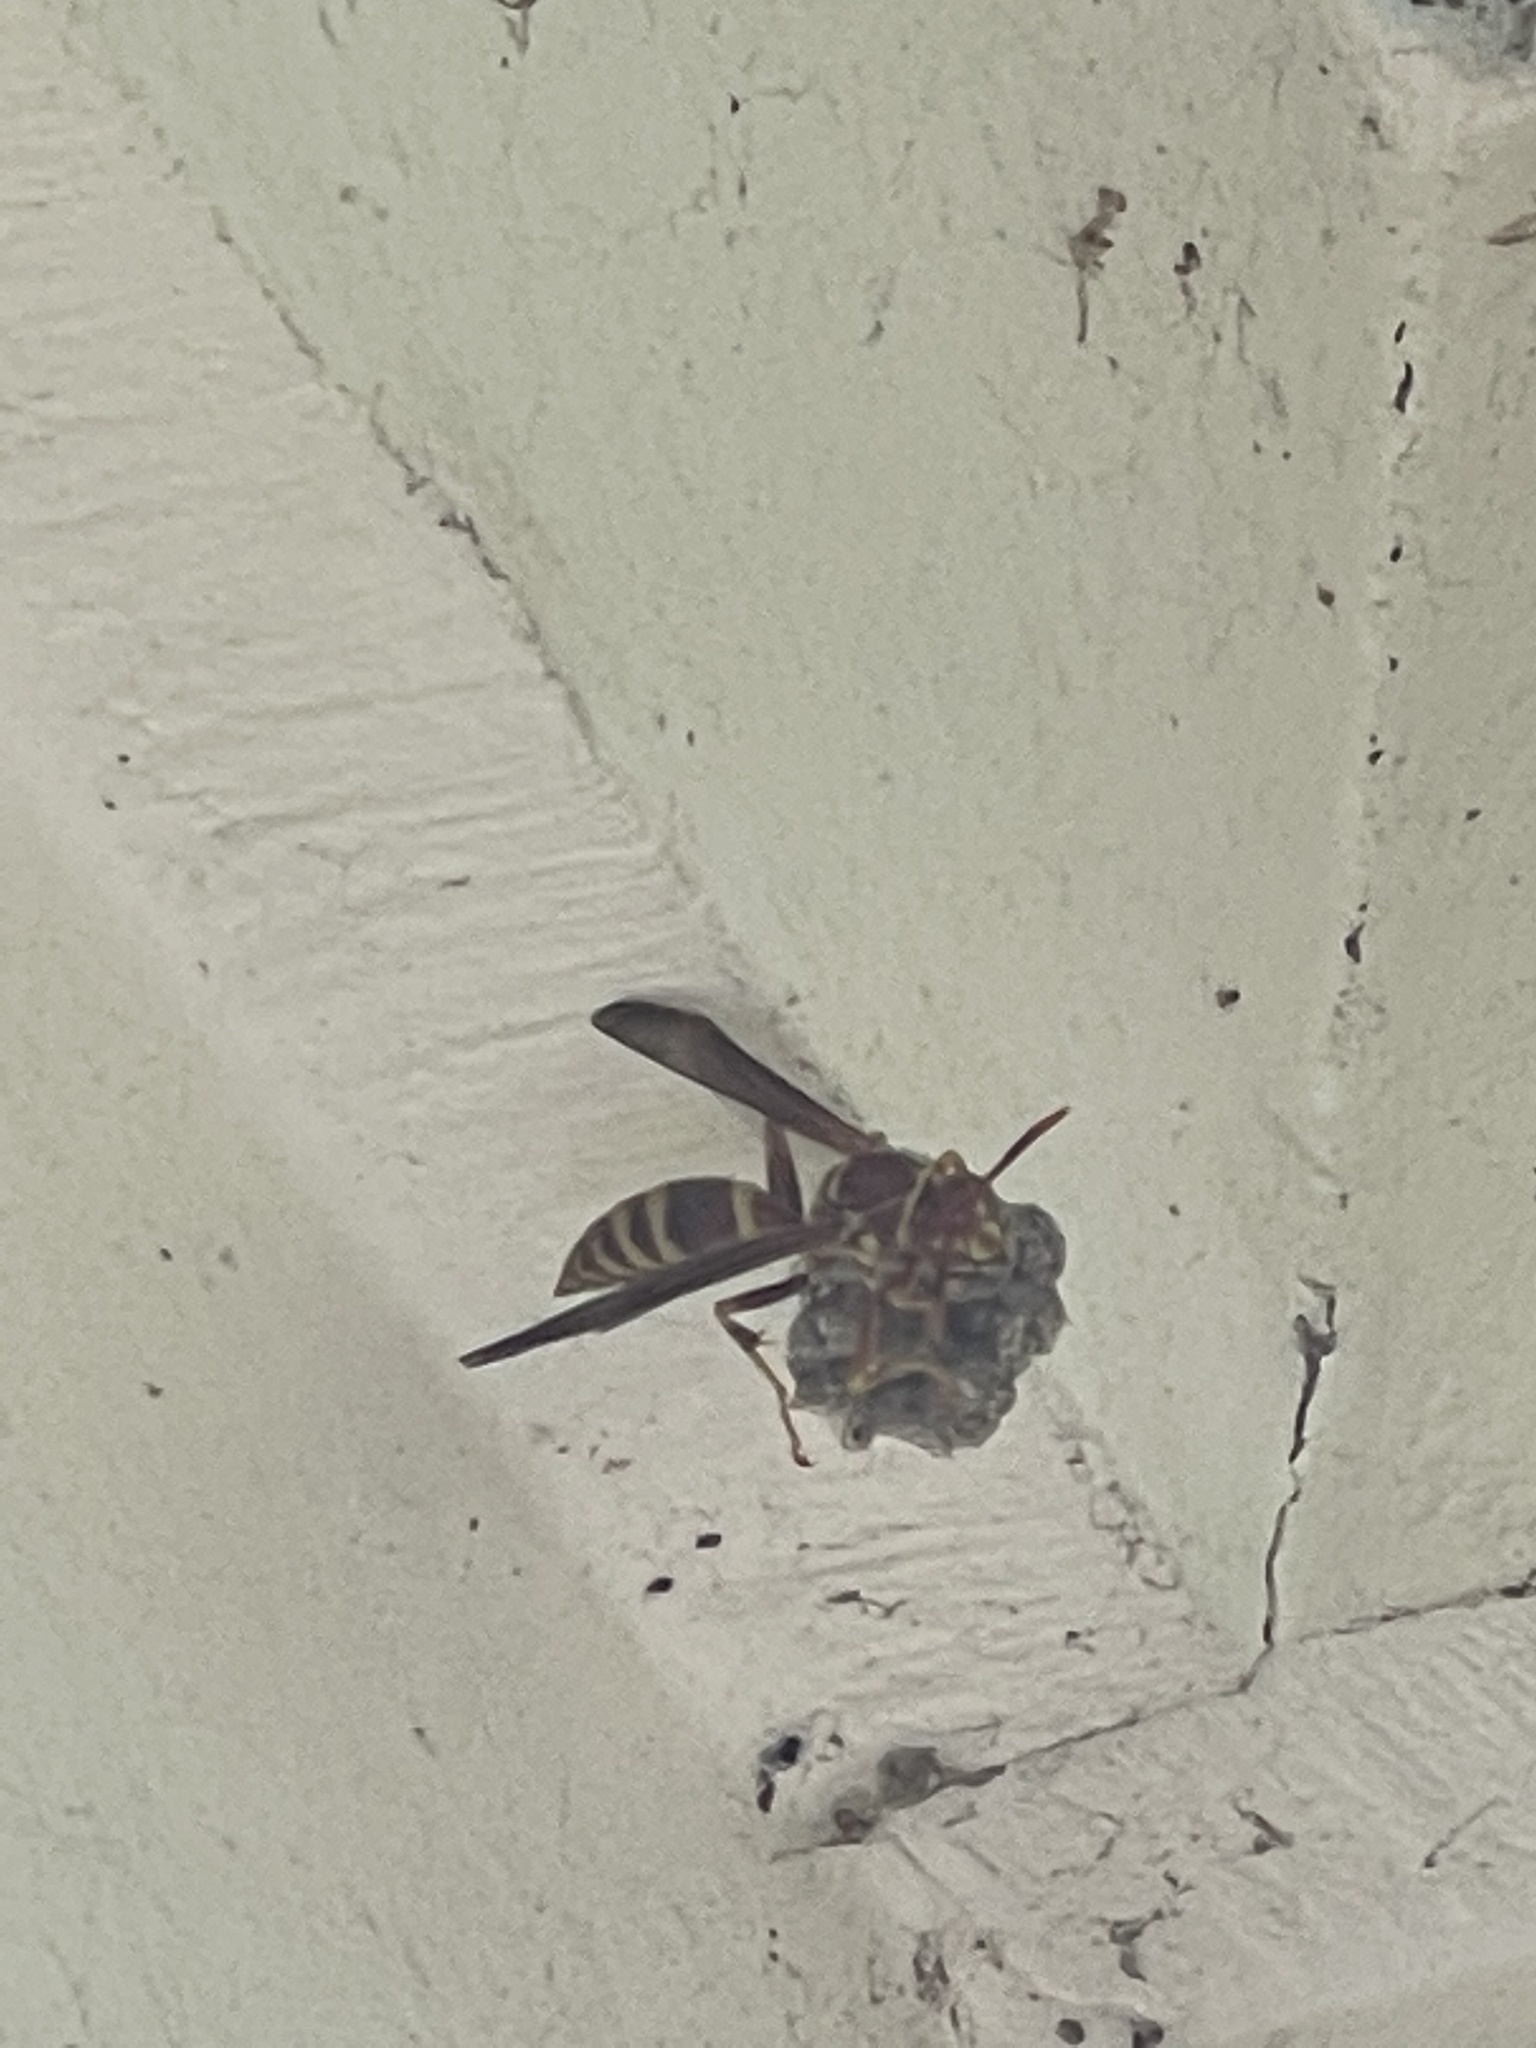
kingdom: Animalia
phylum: Arthropoda
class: Insecta
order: Hymenoptera
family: Eumenidae
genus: Polistes
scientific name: Polistes exclamans
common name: Paper wasp
